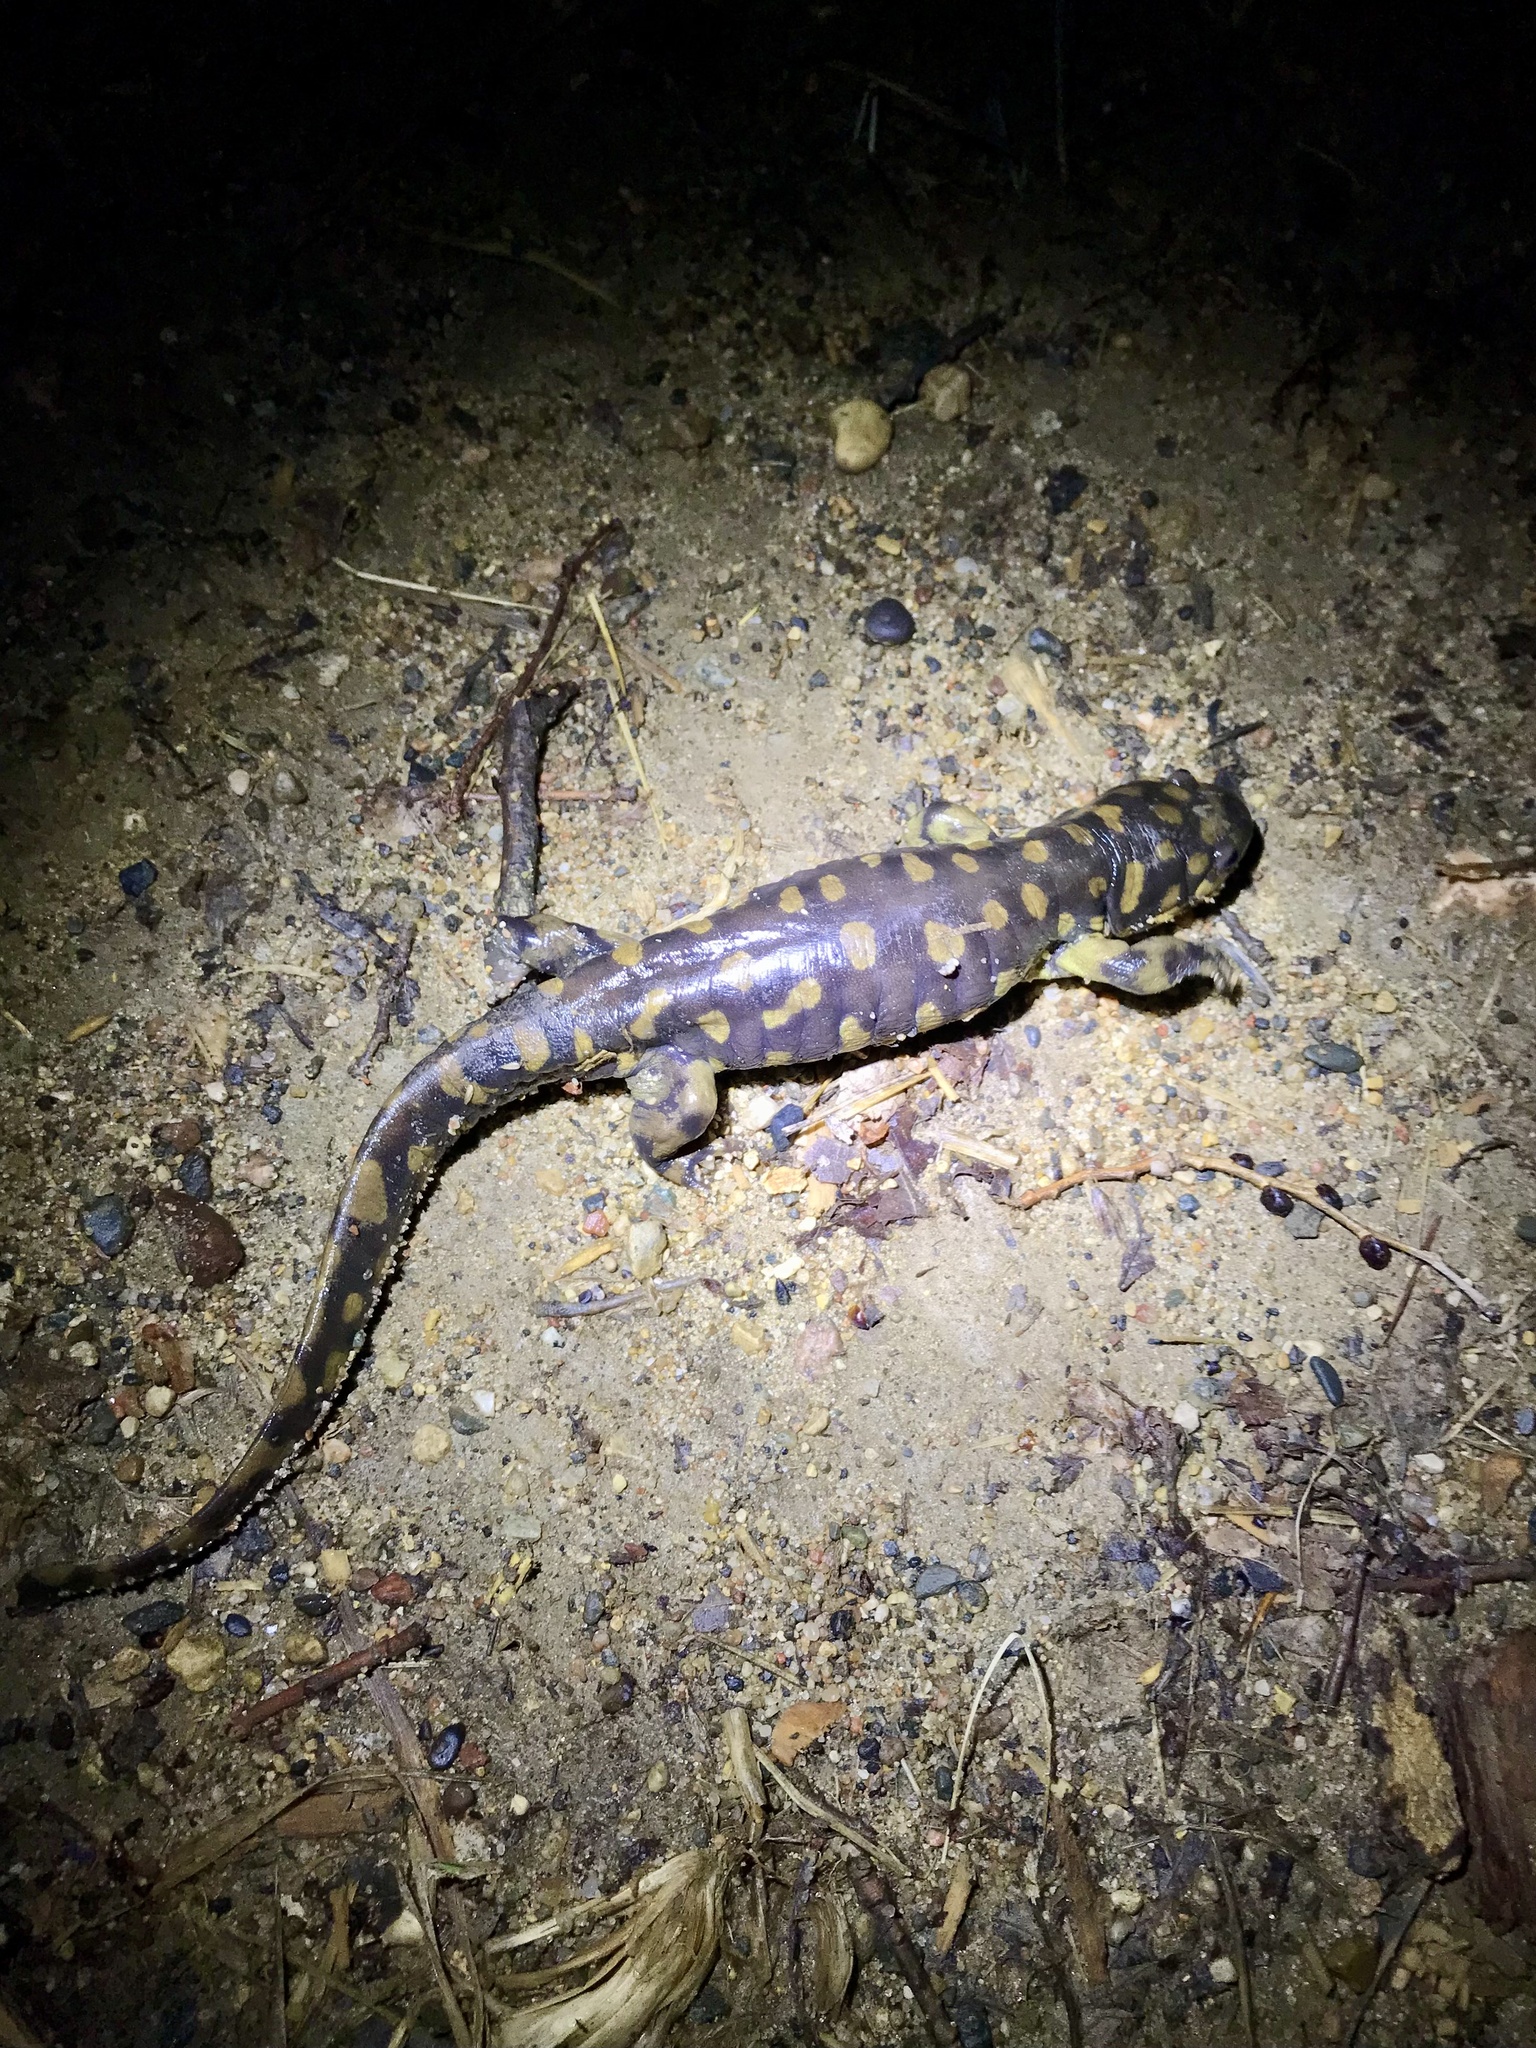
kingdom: Animalia
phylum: Chordata
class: Amphibia
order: Caudata
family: Ambystomatidae
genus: Ambystoma
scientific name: Ambystoma tigrinum
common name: Tiger salamander
